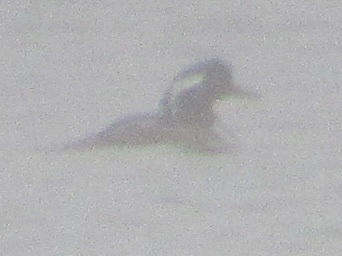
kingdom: Animalia
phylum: Chordata
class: Aves
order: Anseriformes
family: Anatidae
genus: Lophodytes
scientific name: Lophodytes cucullatus
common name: Hooded merganser
